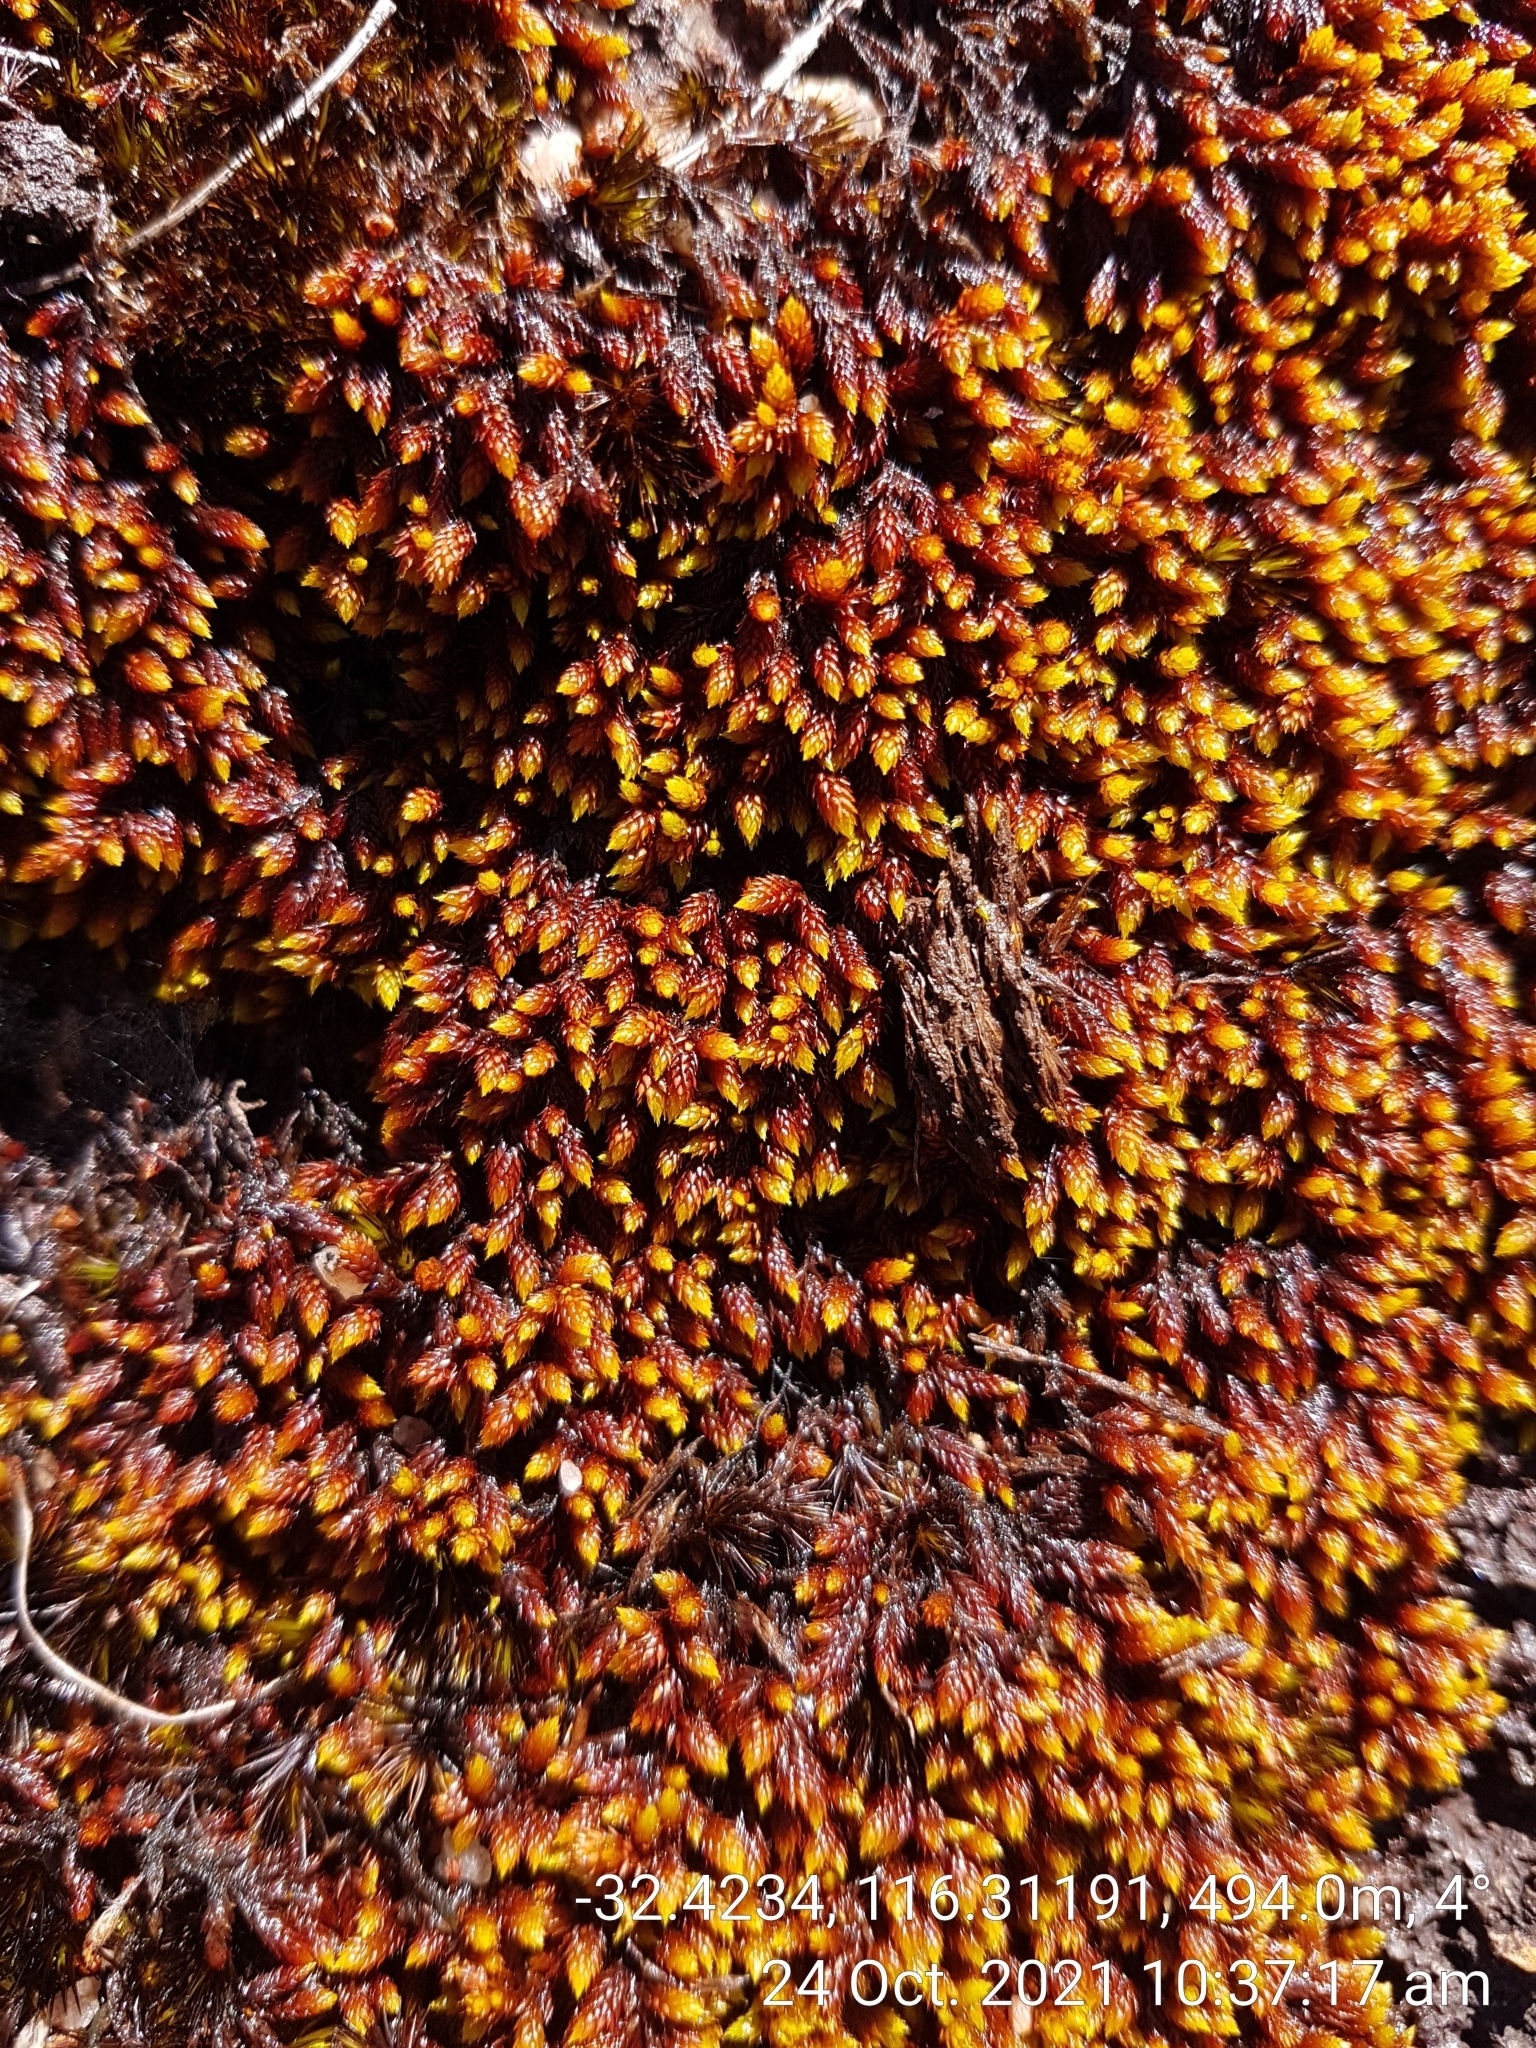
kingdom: Plantae
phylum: Bryophyta
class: Bryopsida
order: Hedwigiales
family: Hedwigiaceae
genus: Rhacocarpus
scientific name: Rhacocarpus purpurascens
